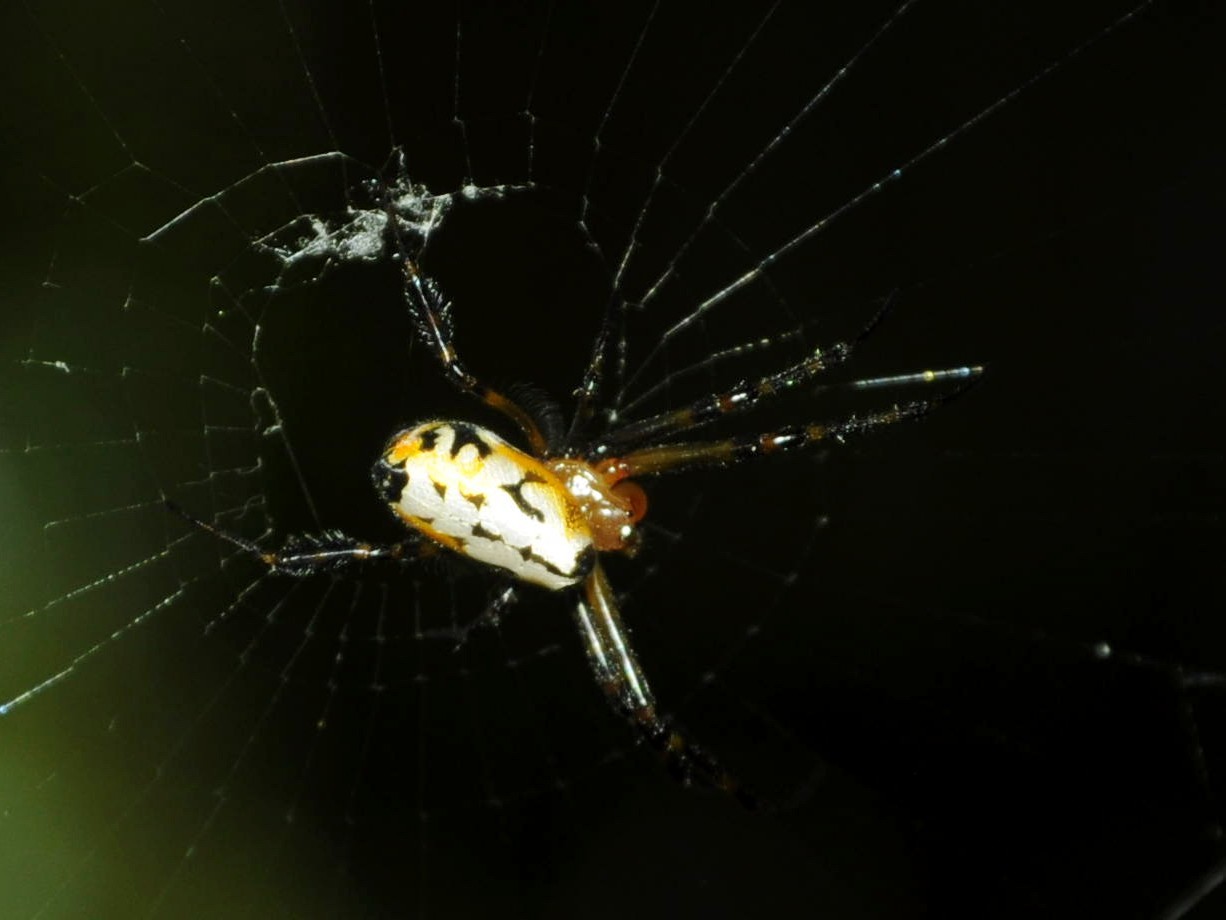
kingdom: Animalia
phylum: Arthropoda
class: Arachnida
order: Araneae
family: Tetragnathidae
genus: Leucauge
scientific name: Leucauge fastigata
